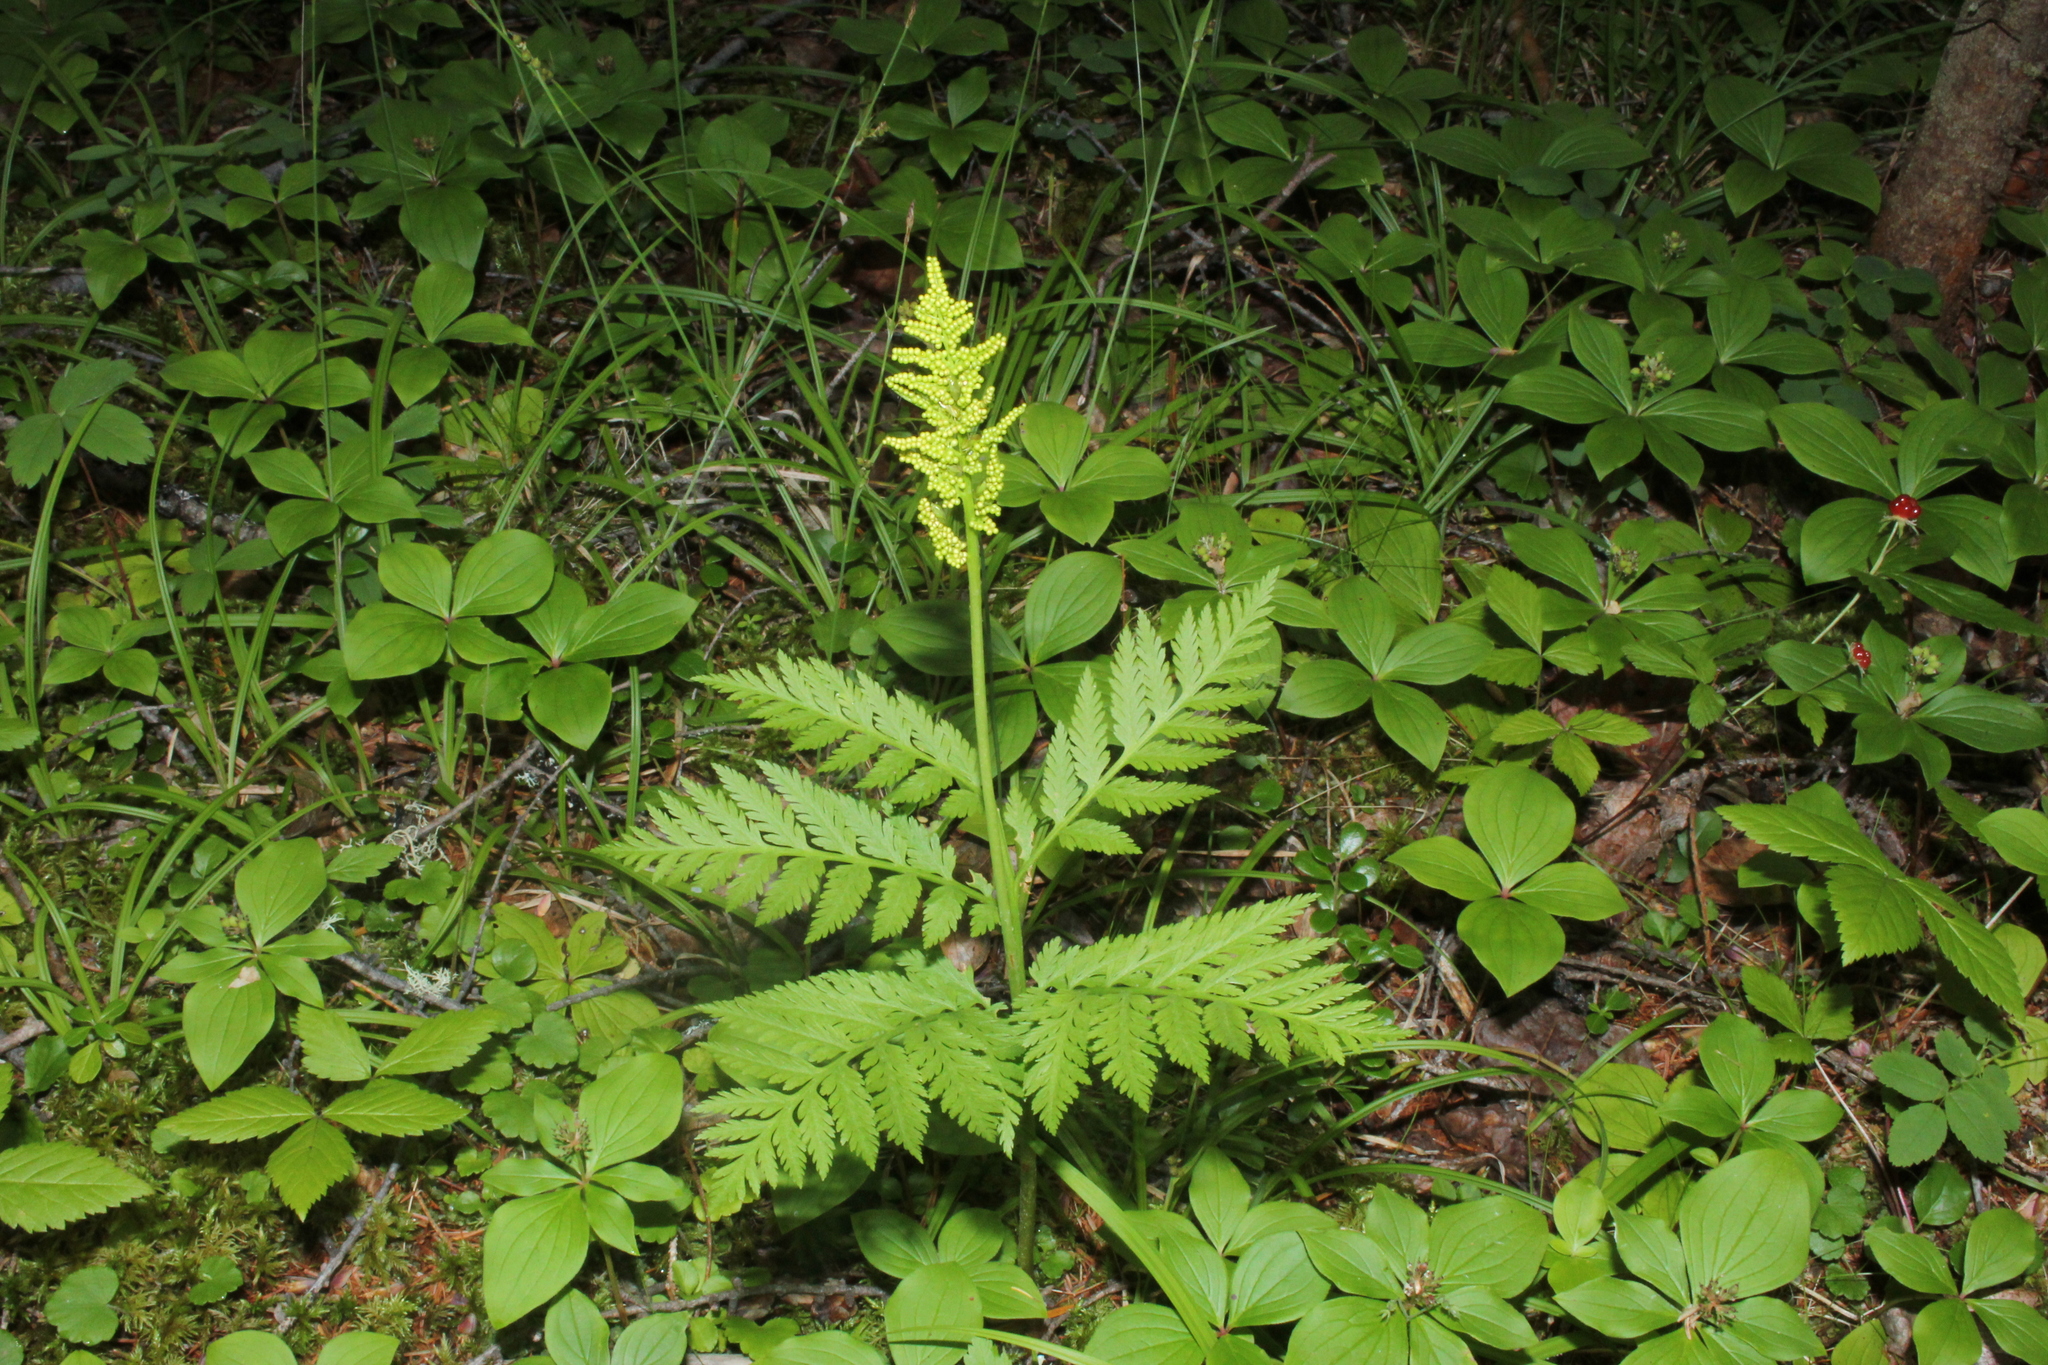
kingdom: Plantae
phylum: Tracheophyta
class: Polypodiopsida
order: Ophioglossales
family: Ophioglossaceae
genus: Botrypus
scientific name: Botrypus virginianus
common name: Common grapefern
